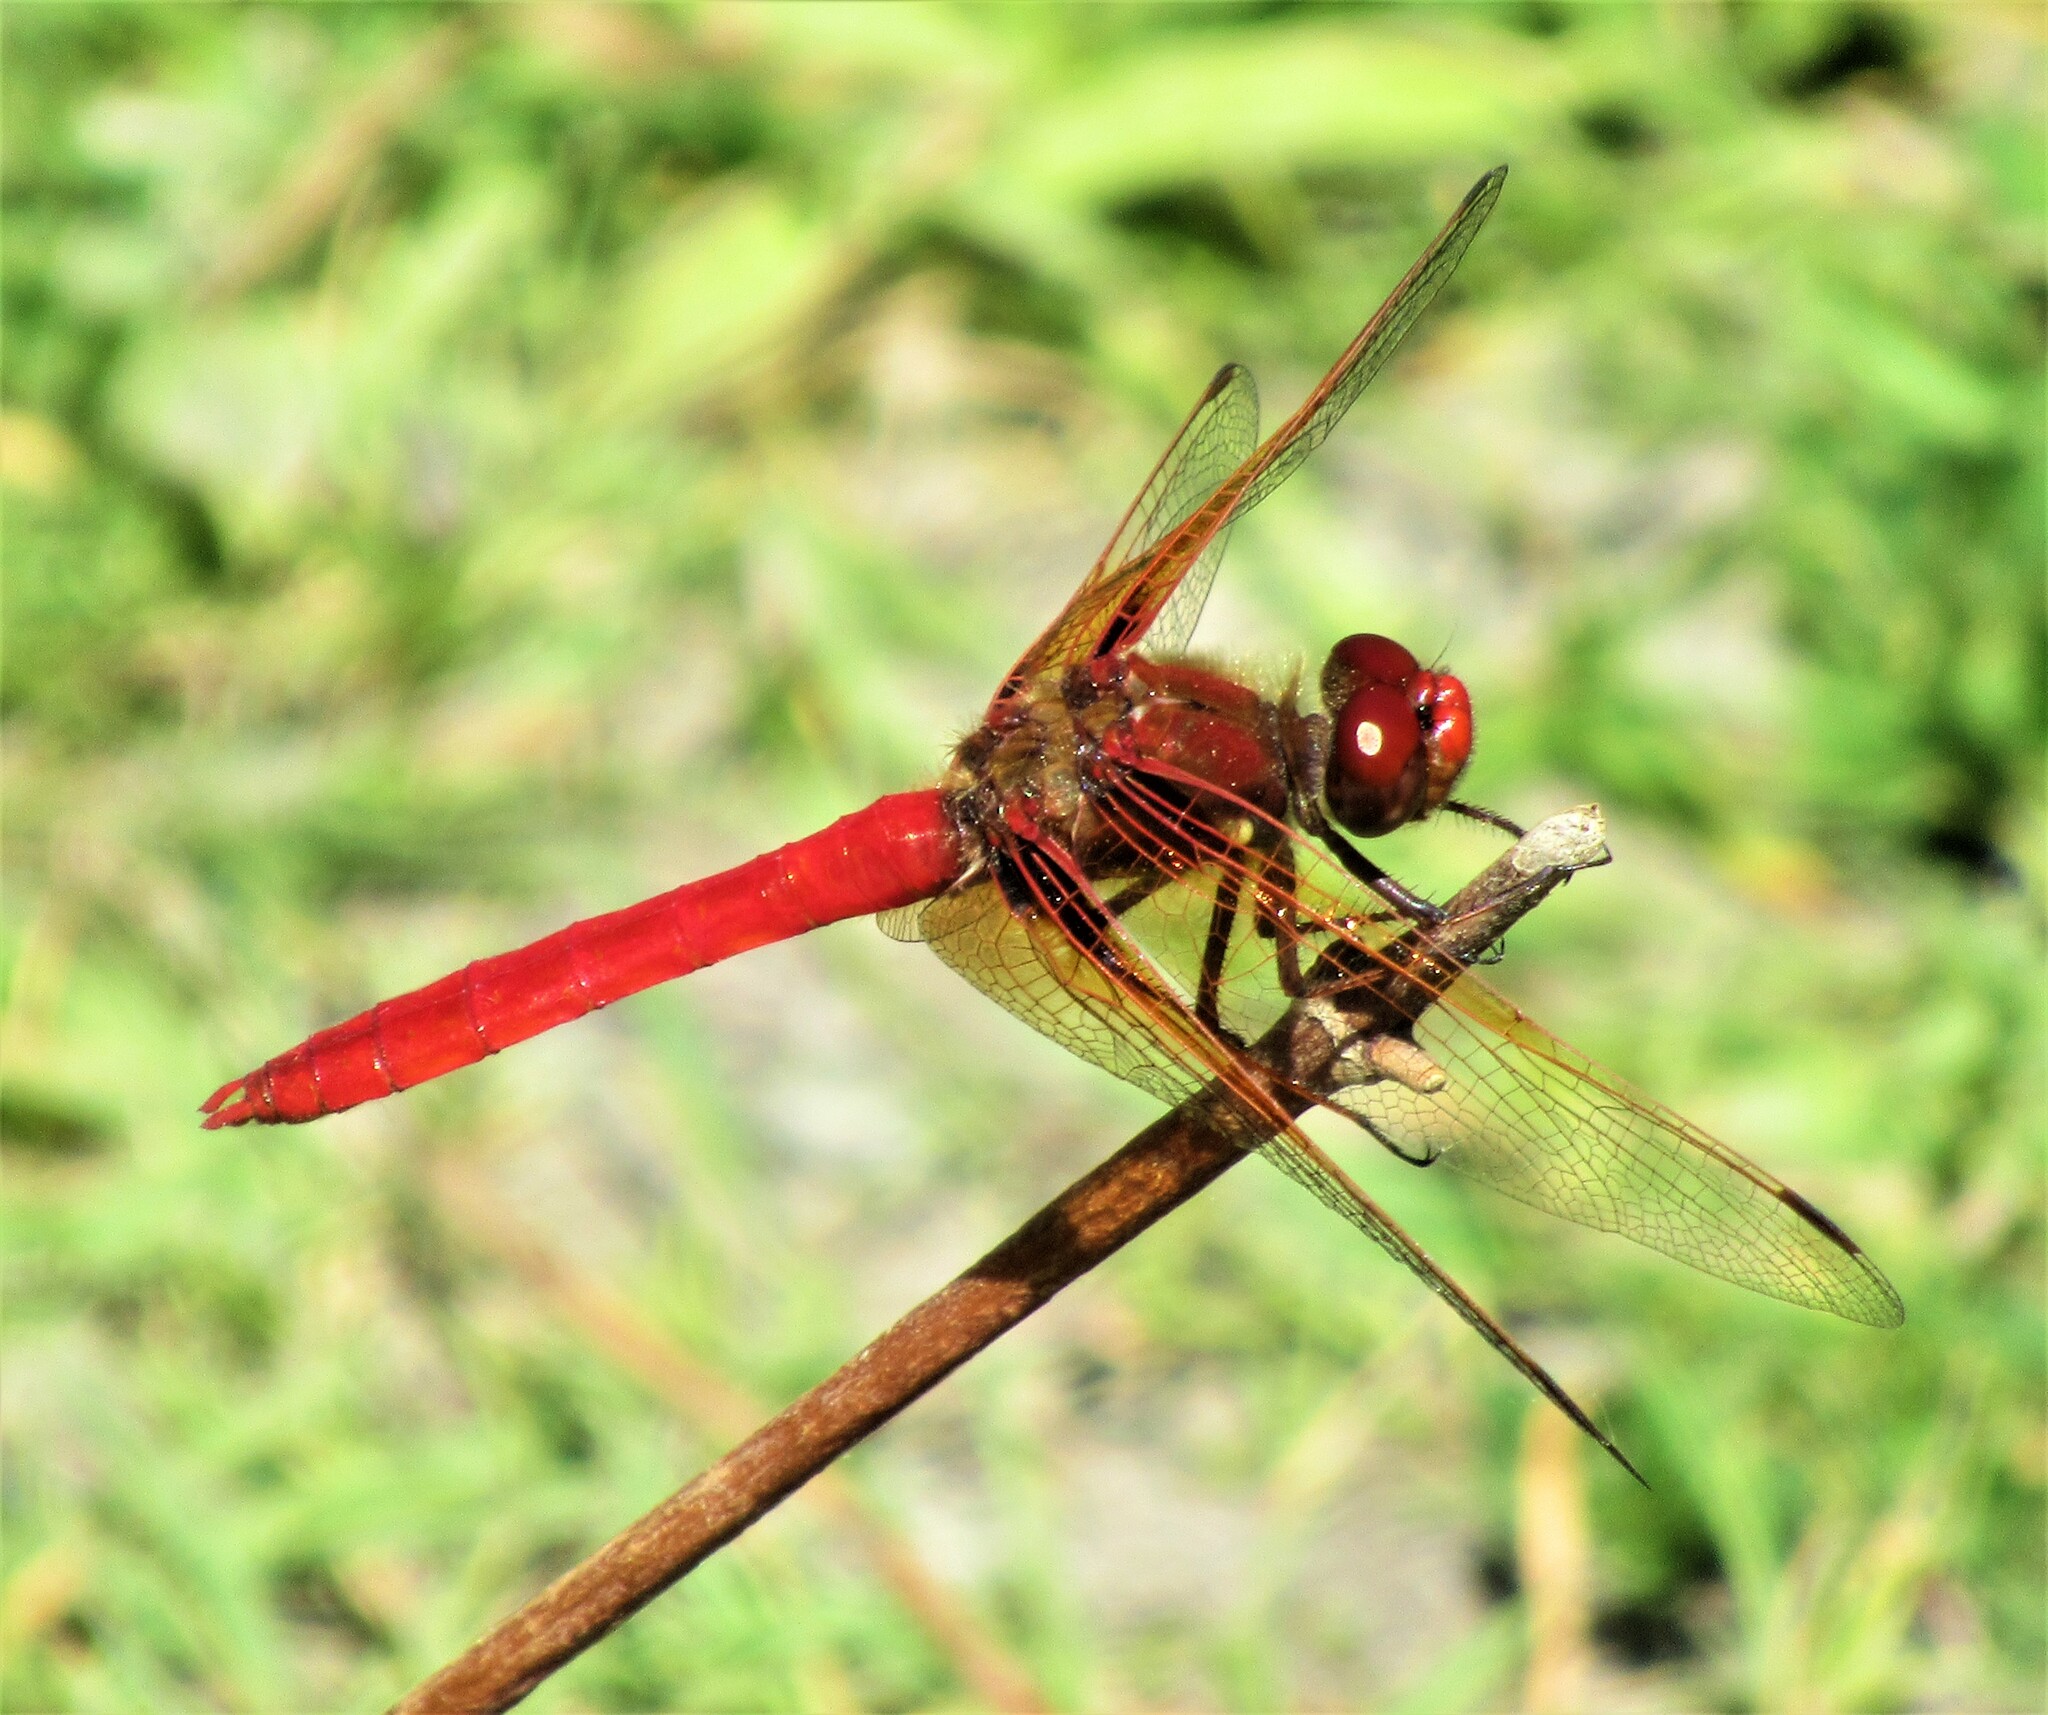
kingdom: Animalia
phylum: Arthropoda
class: Insecta
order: Odonata
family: Libellulidae
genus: Sympetrum
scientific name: Sympetrum illotum
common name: Cardinal meadowhawk
